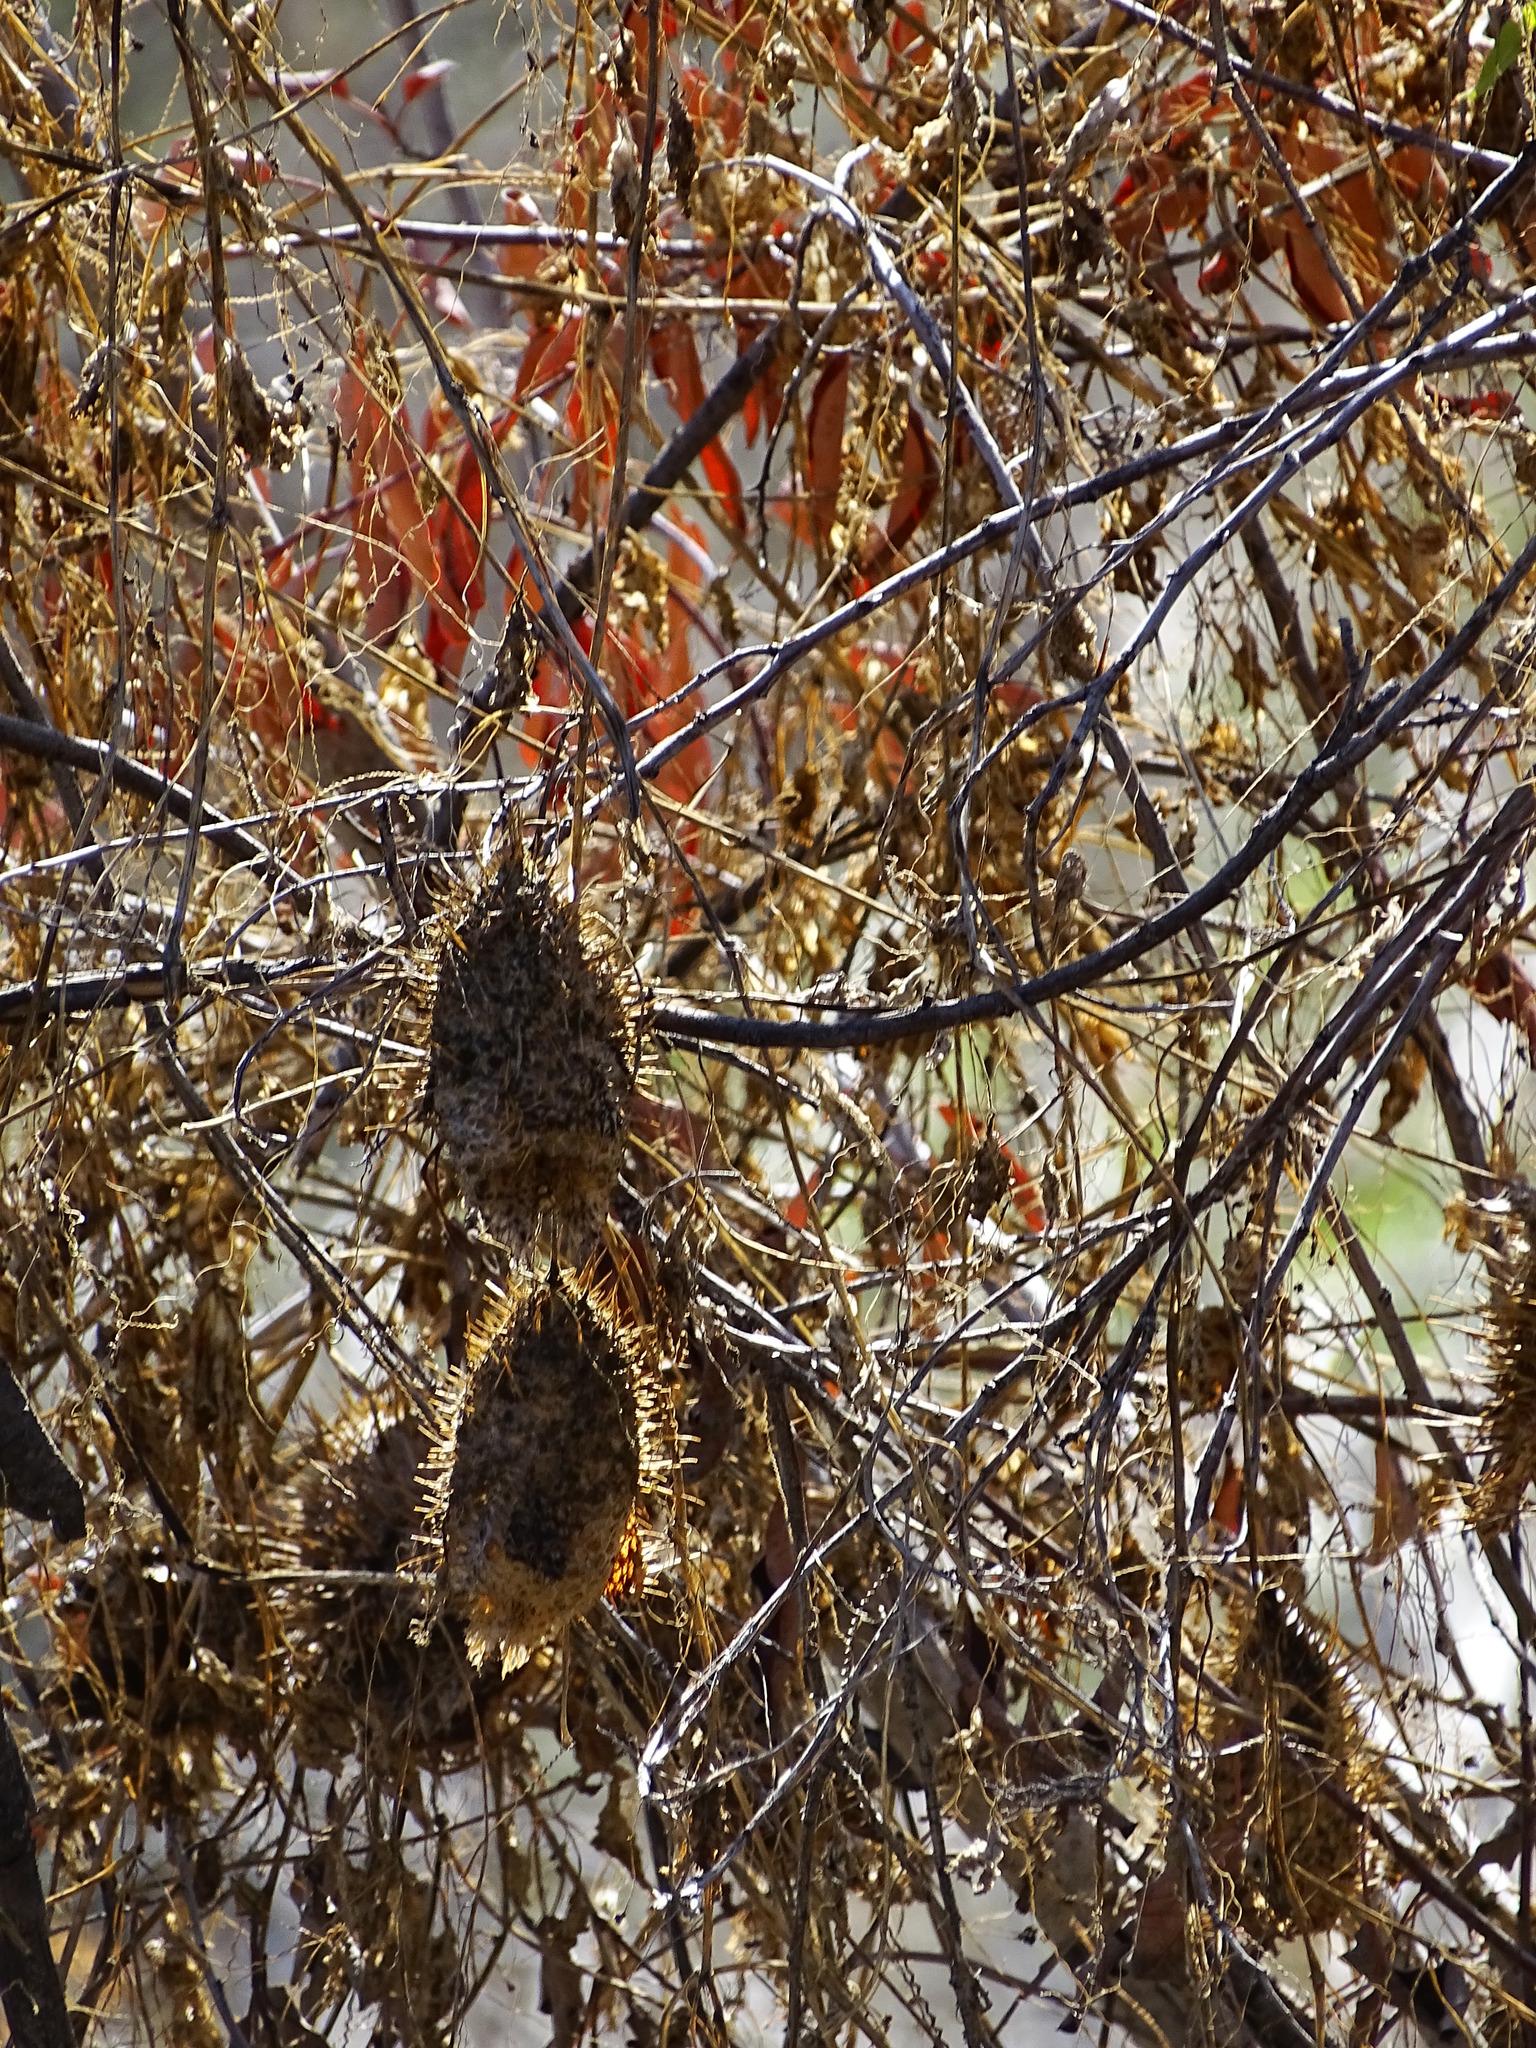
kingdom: Plantae
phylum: Tracheophyta
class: Magnoliopsida
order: Cucurbitales
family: Cucurbitaceae
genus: Marah
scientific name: Marah macrocarpa
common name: Cucamonga manroot
